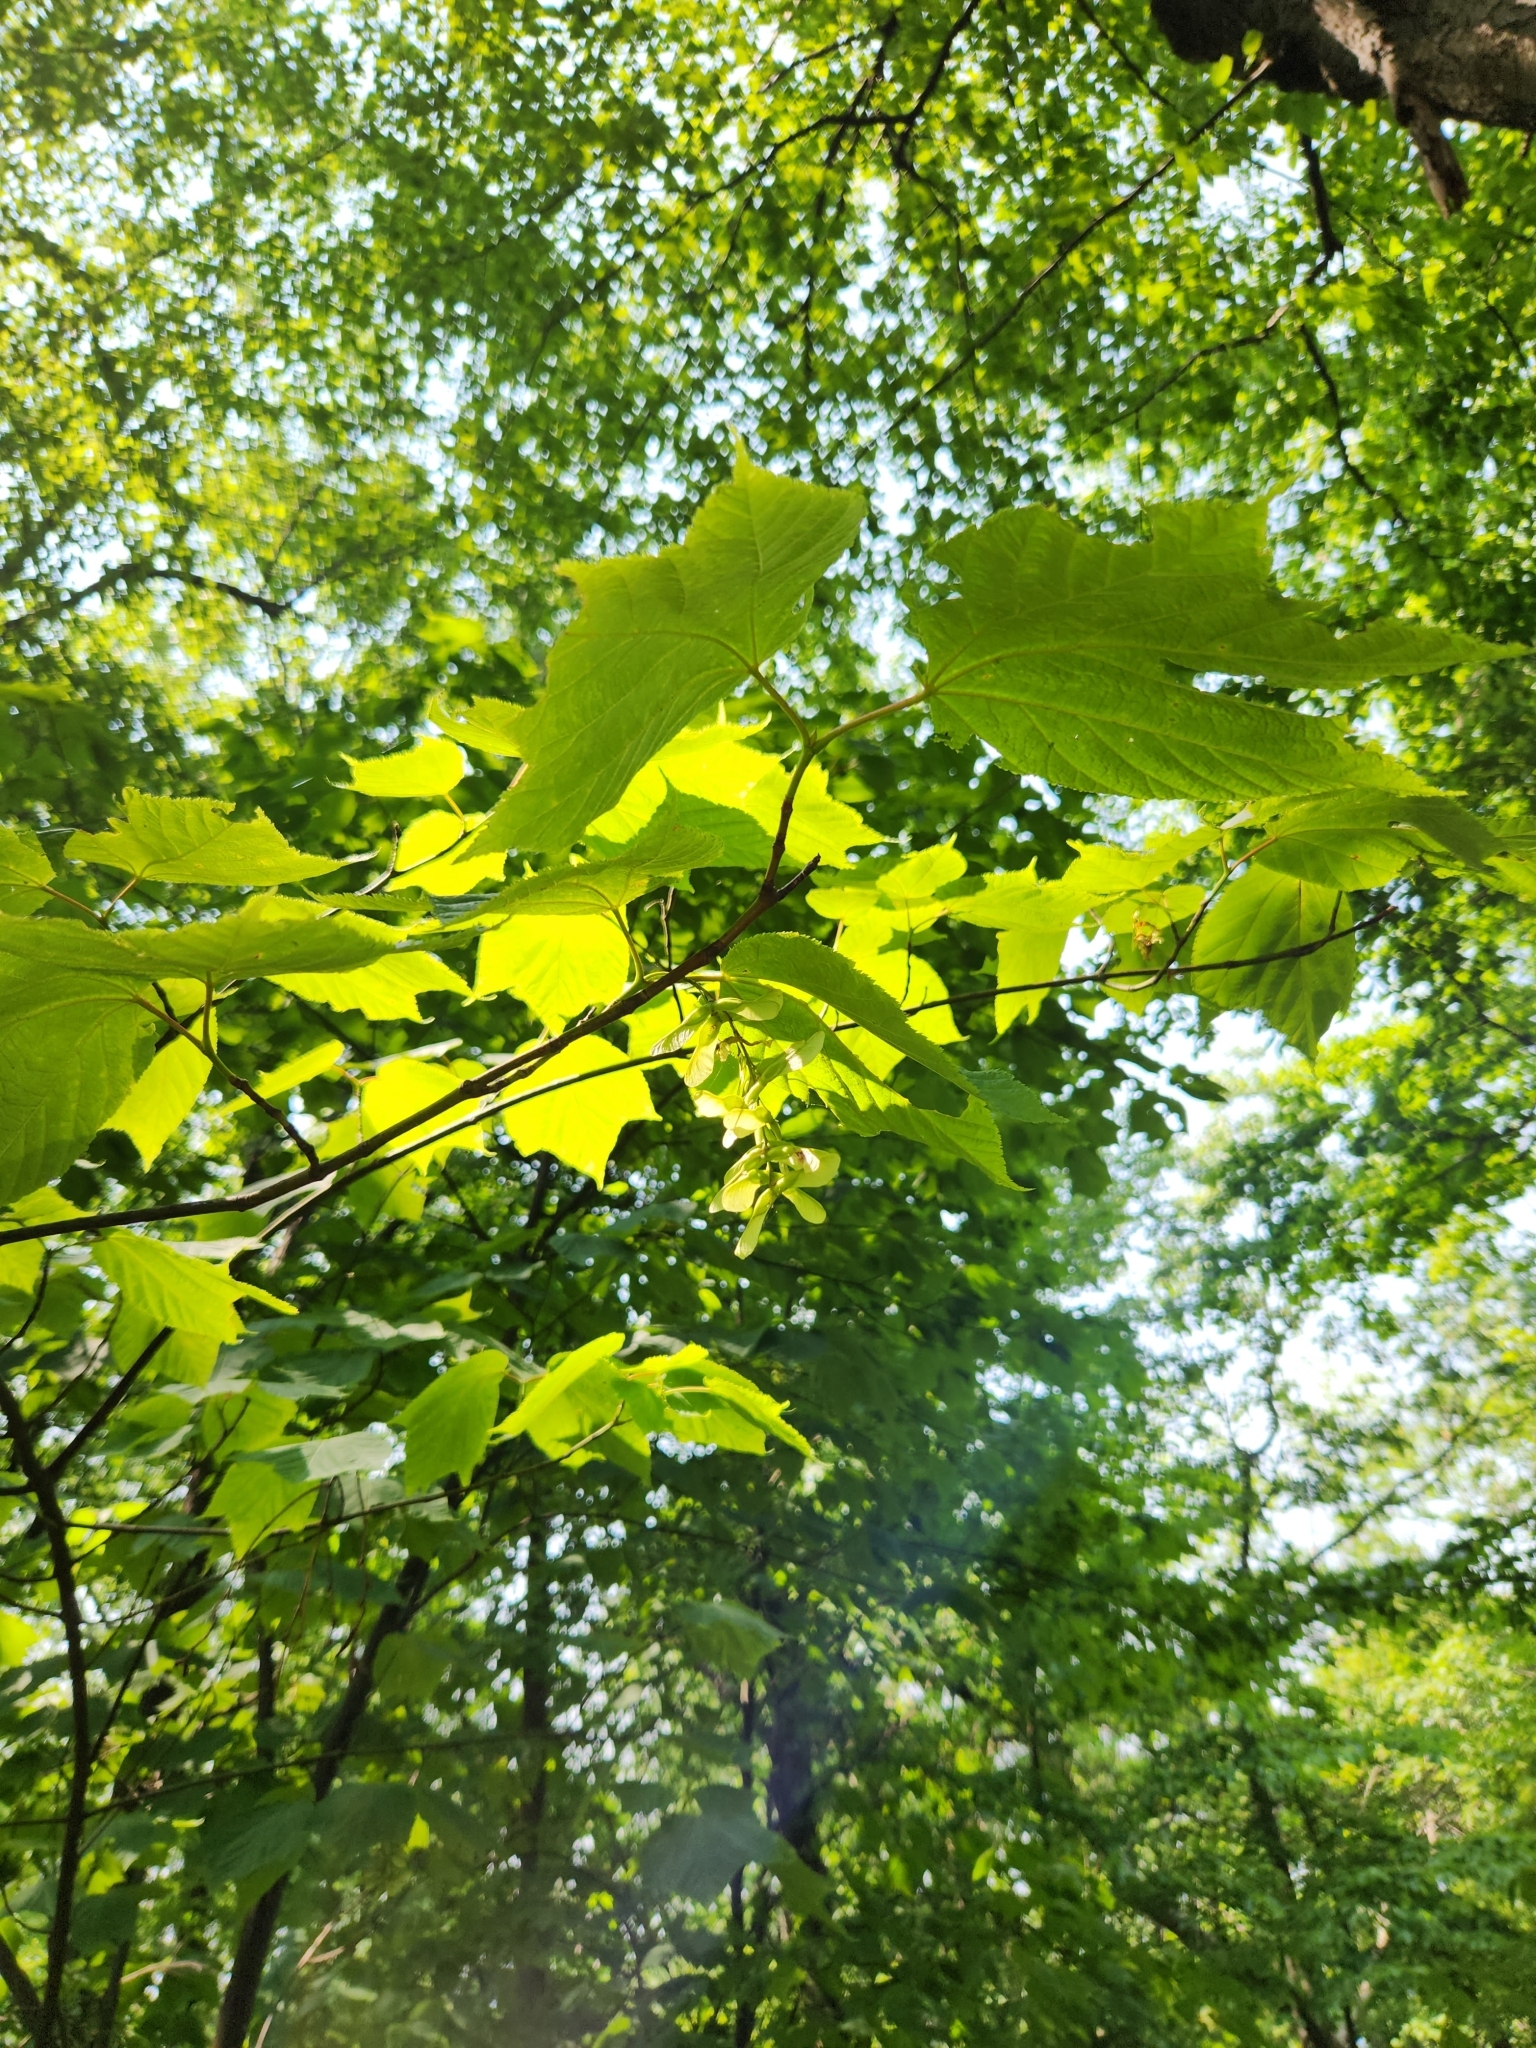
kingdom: Plantae
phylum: Tracheophyta
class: Magnoliopsida
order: Sapindales
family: Sapindaceae
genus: Acer
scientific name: Acer pensylvanicum
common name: Moosewood
